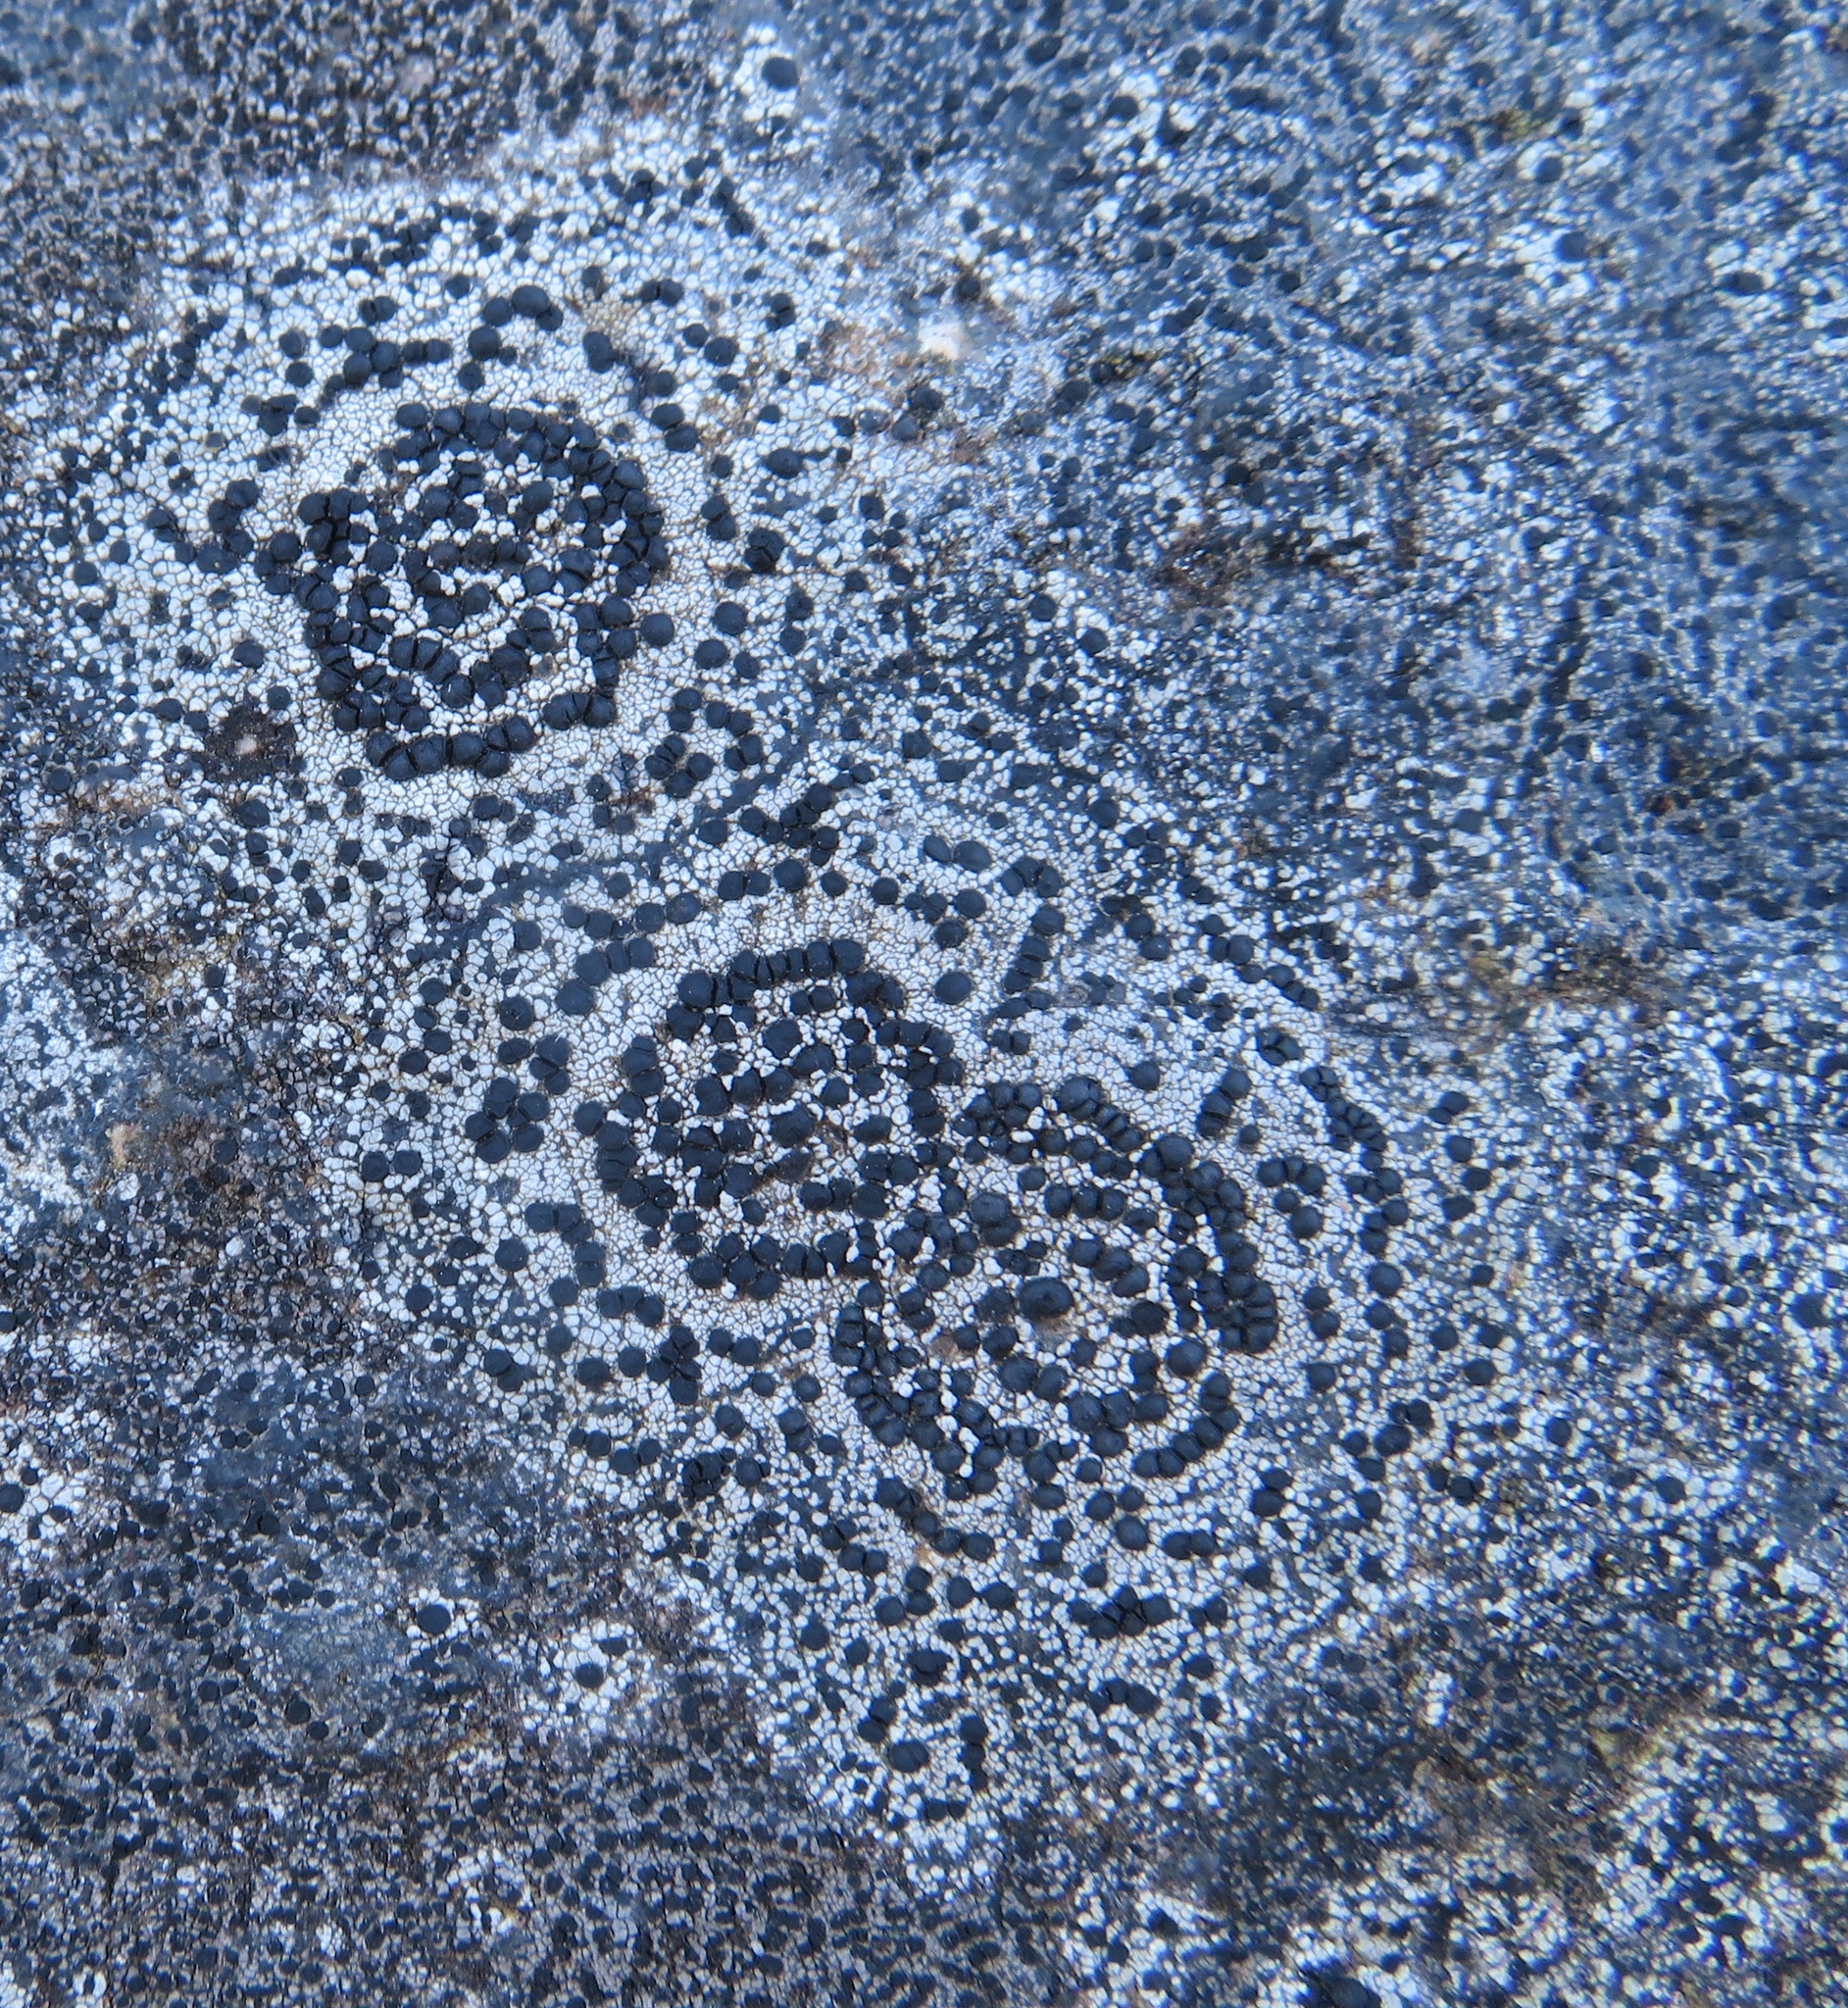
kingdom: Fungi
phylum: Ascomycota
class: Lecanoromycetes
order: Lecideales
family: Lecideaceae
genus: Porpidia
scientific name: Porpidia crustulata
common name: Concentric boulder lichen
